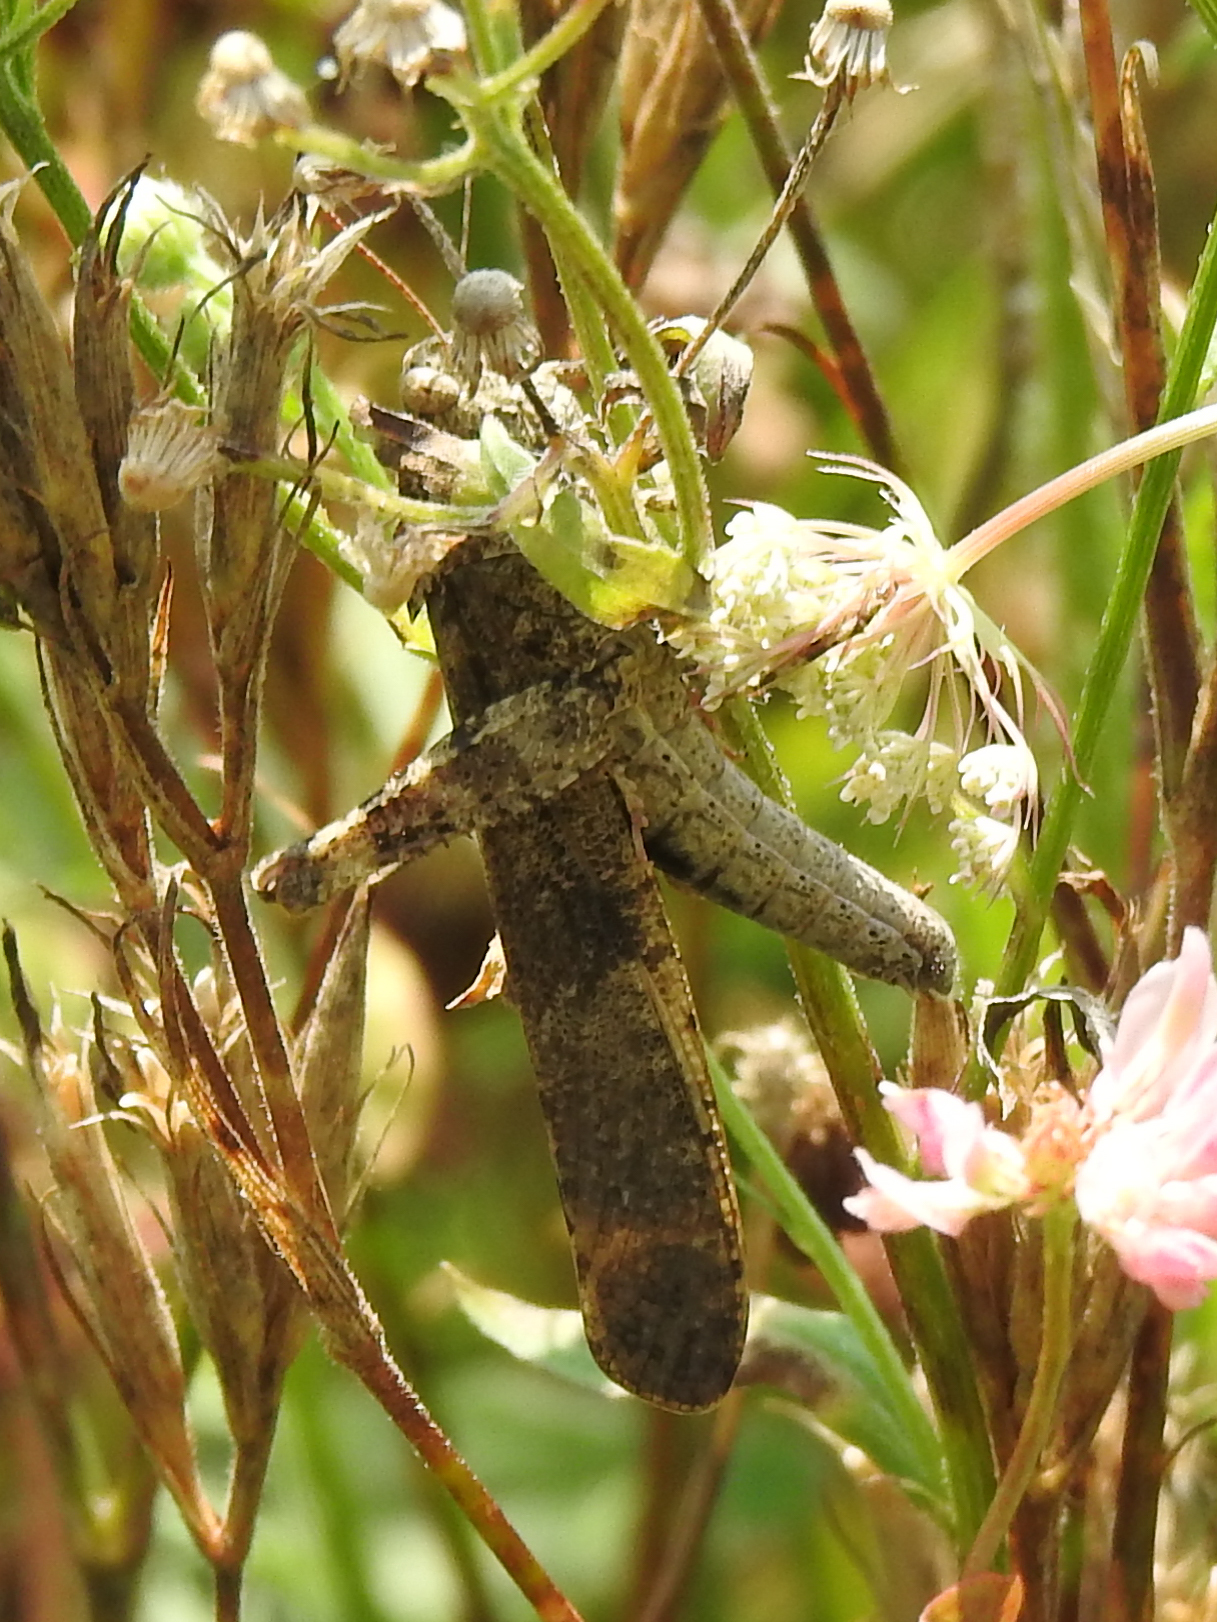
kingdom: Animalia
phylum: Arthropoda
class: Insecta
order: Orthoptera
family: Acrididae
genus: Dissosteira
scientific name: Dissosteira carolina
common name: Carolina grasshopper
